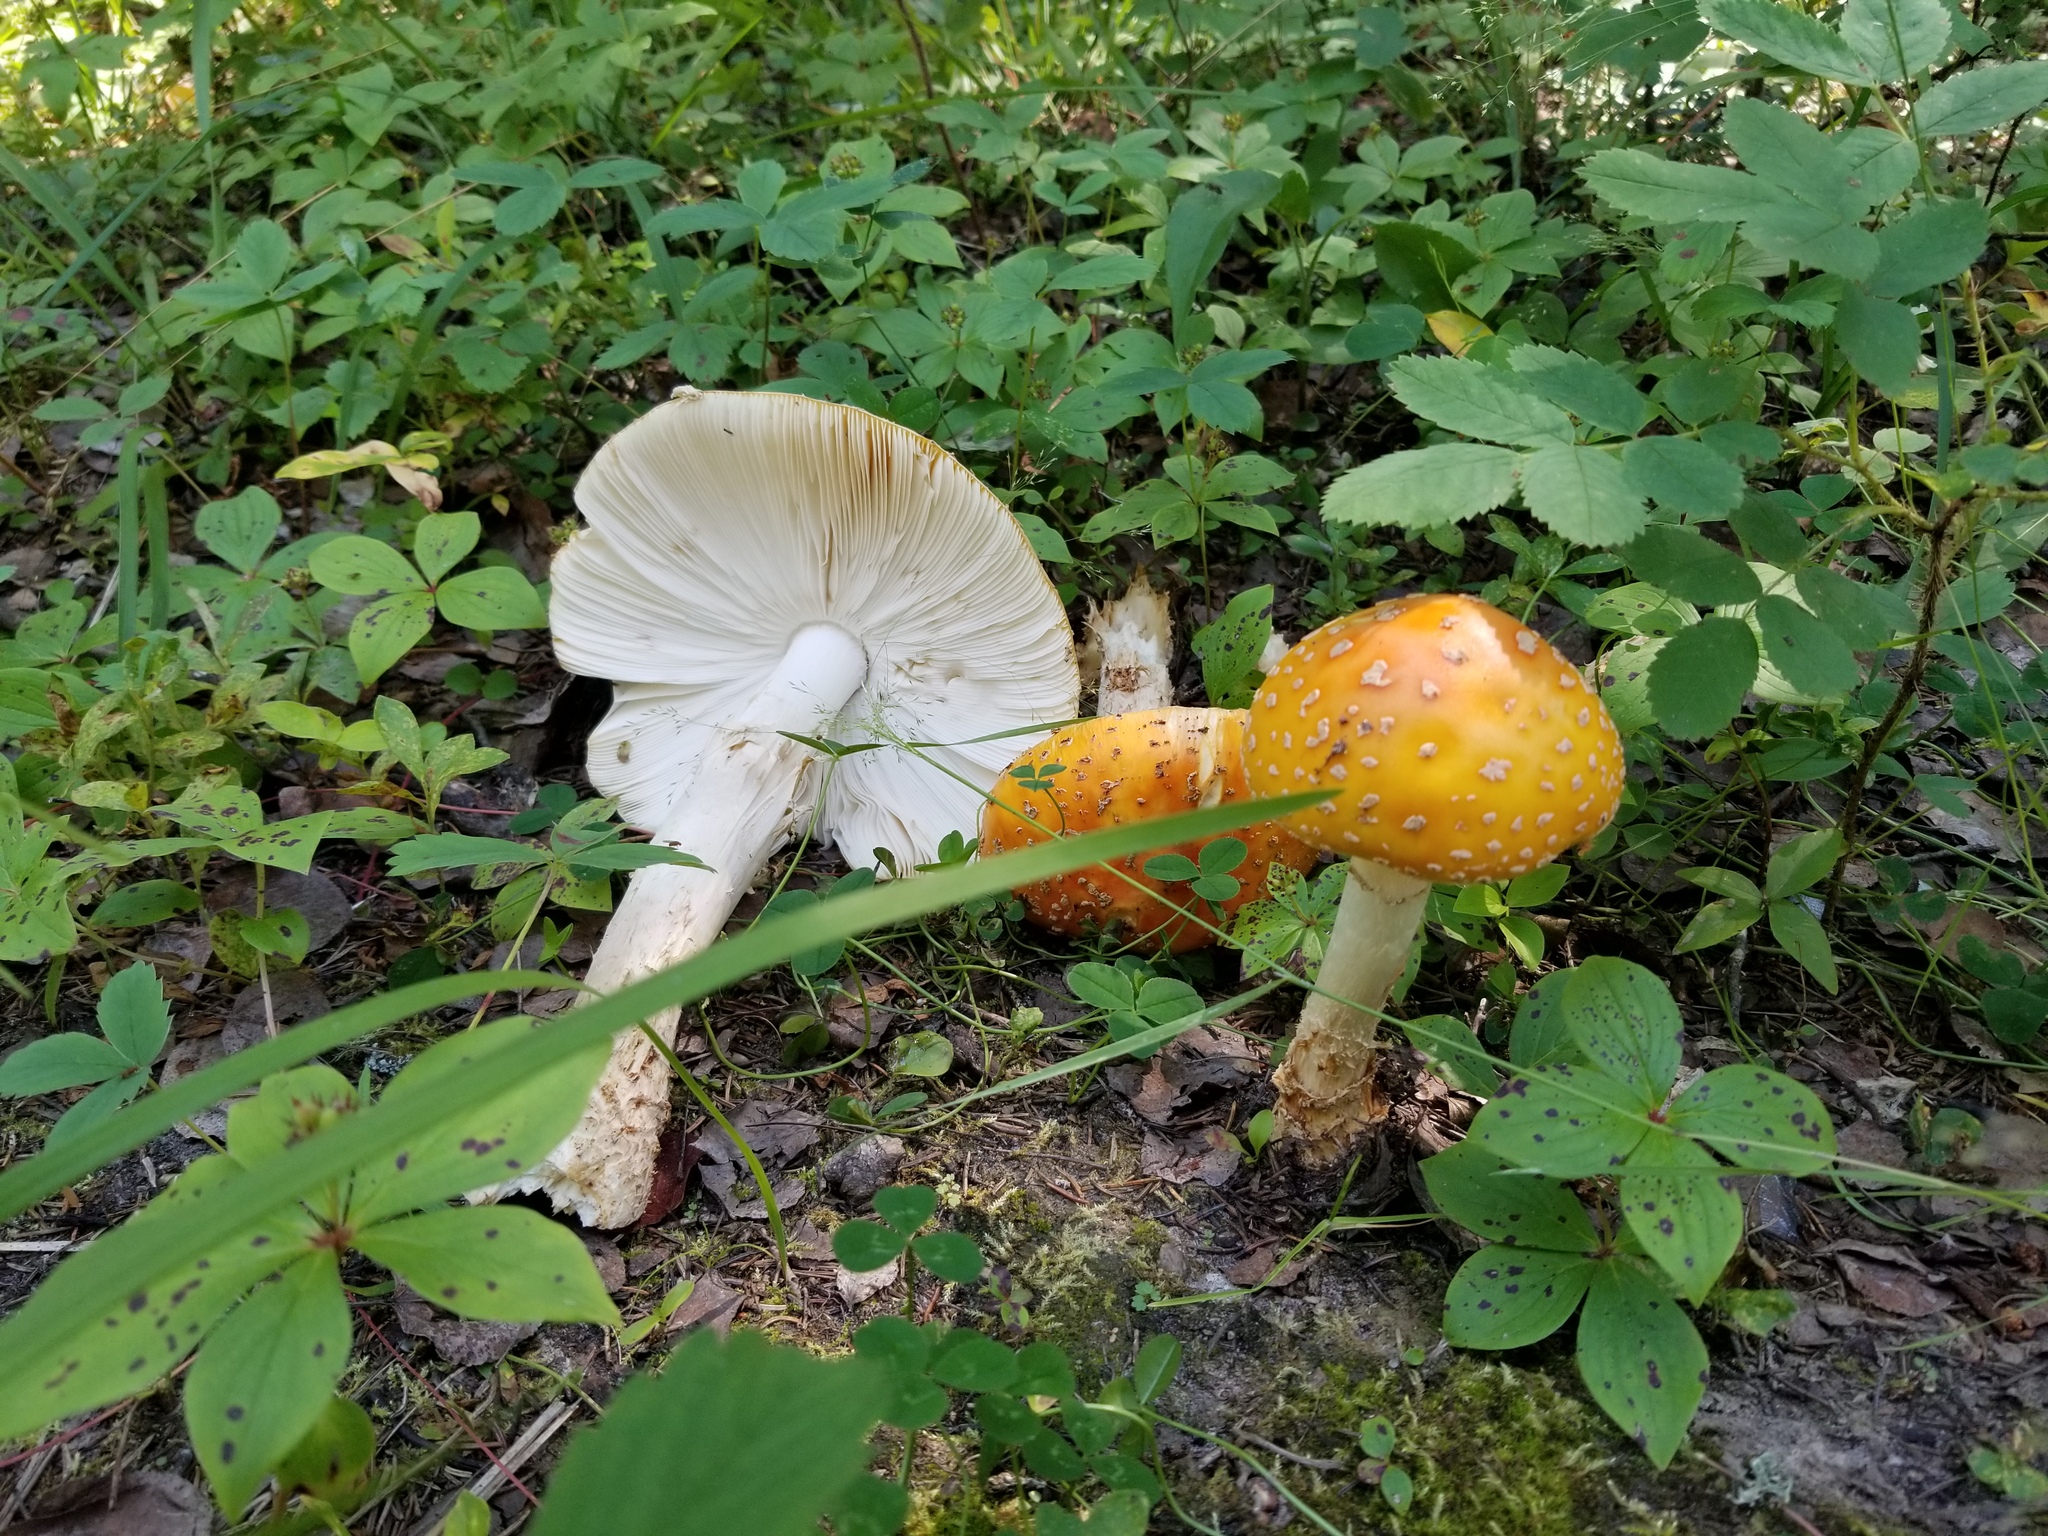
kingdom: Fungi
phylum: Basidiomycota
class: Agaricomycetes
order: Agaricales
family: Amanitaceae
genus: Amanita
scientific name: Amanita muscaria
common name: Fly agaric
